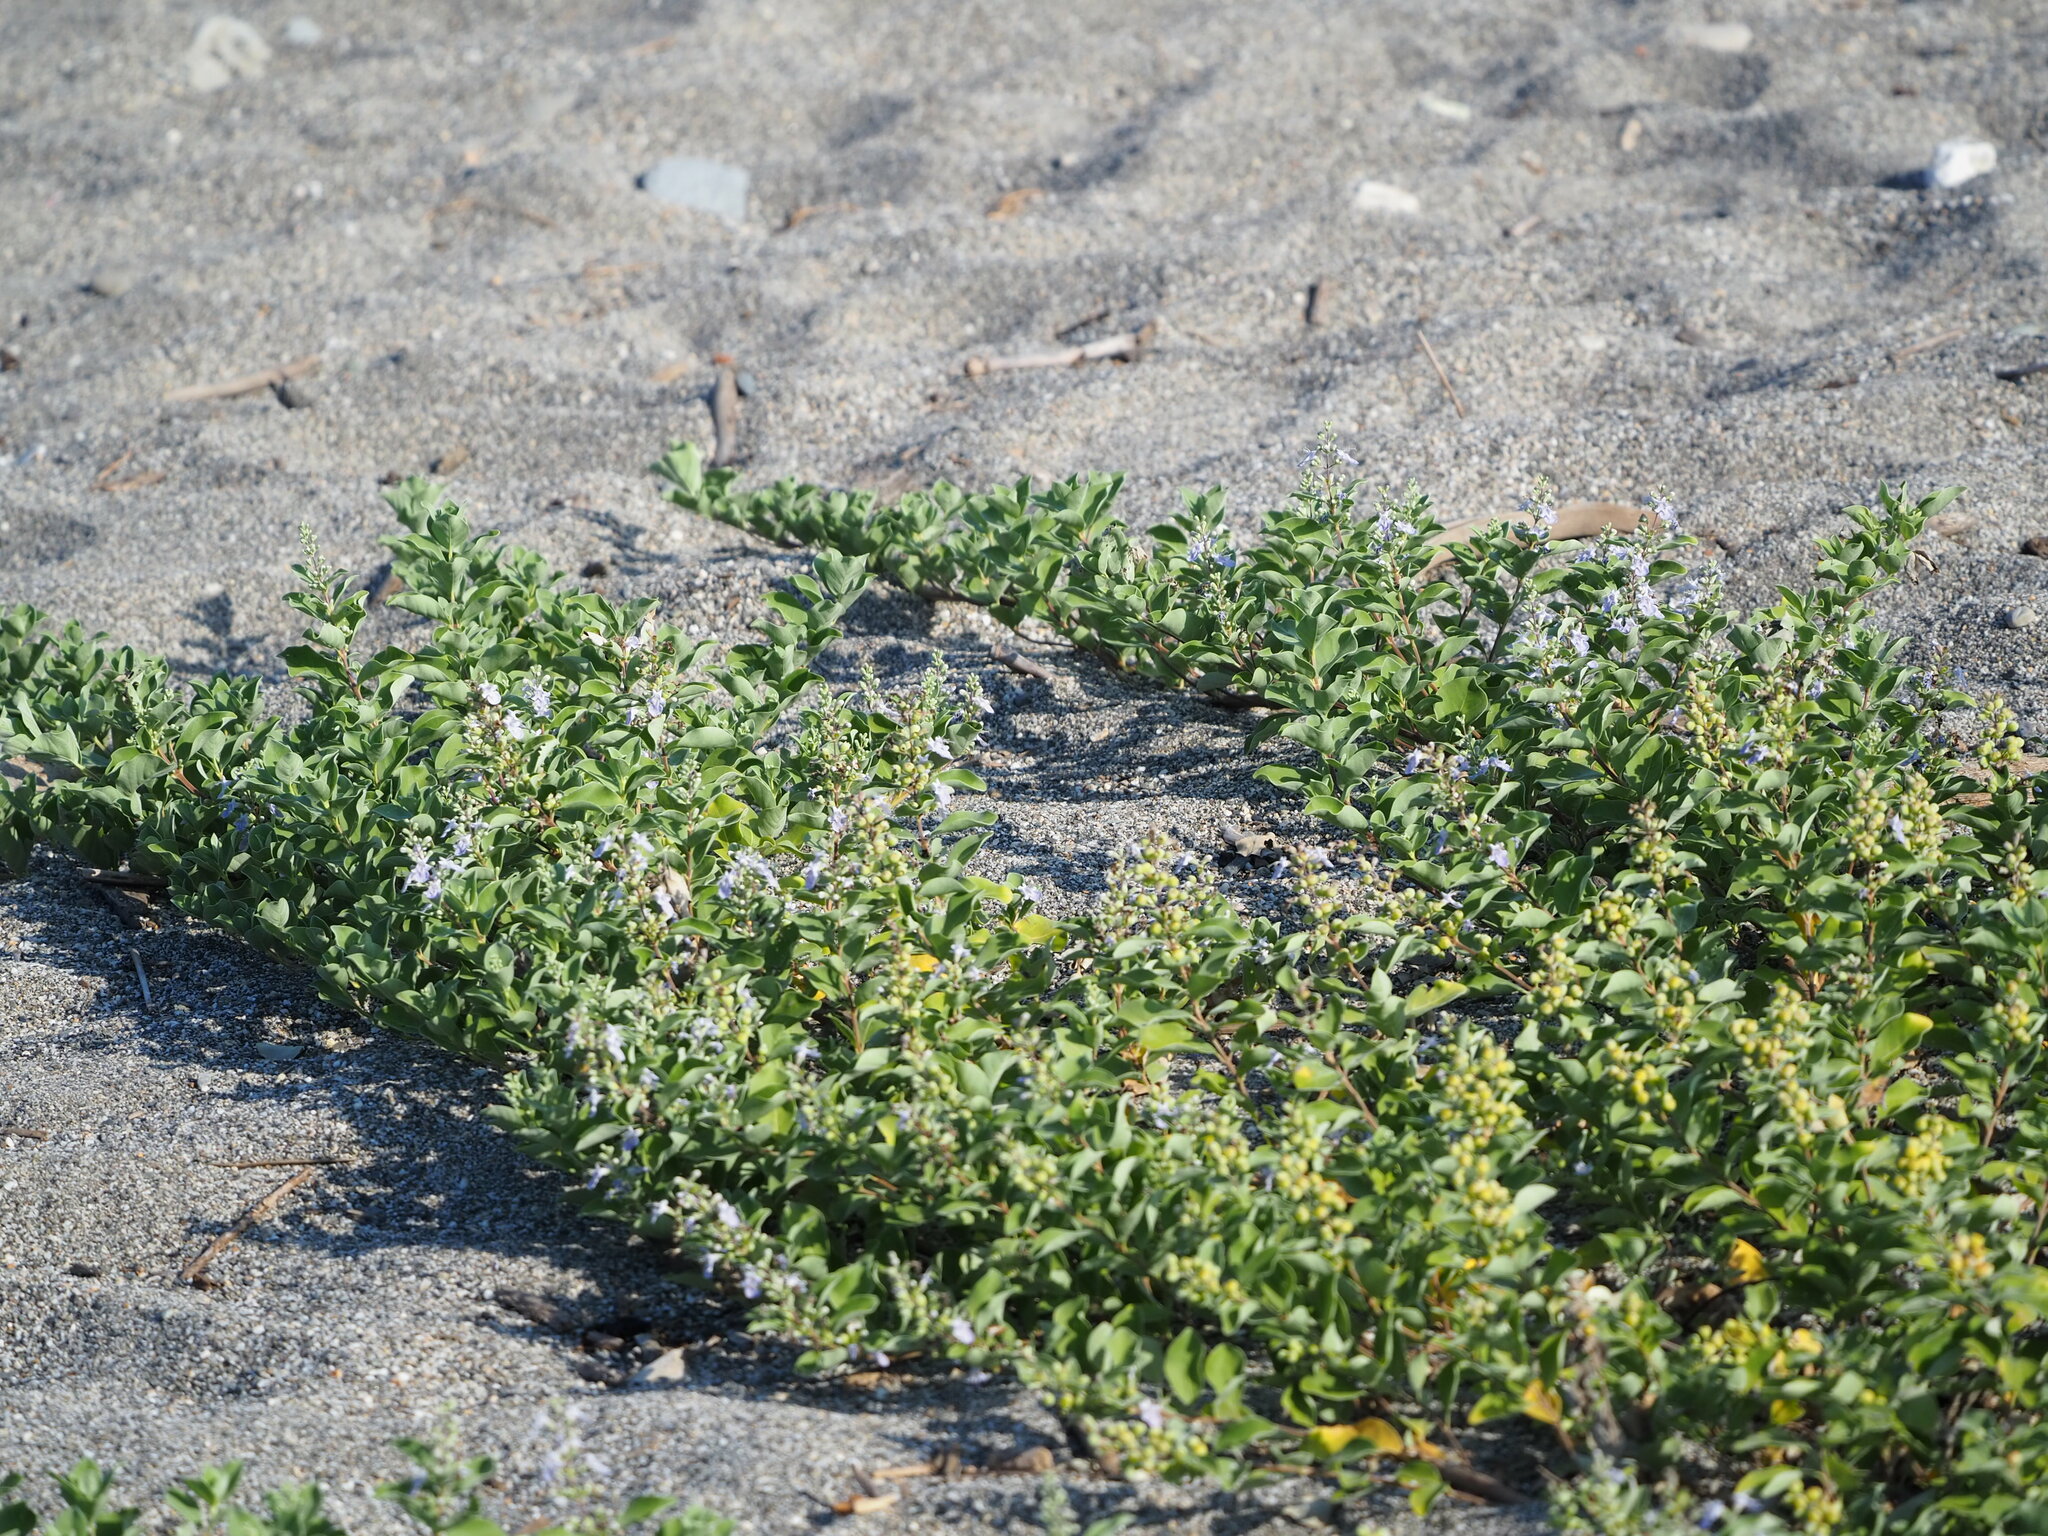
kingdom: Plantae
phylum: Tracheophyta
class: Magnoliopsida
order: Lamiales
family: Lamiaceae
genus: Vitex
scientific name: Vitex rotundifolia
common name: Beach vitex
